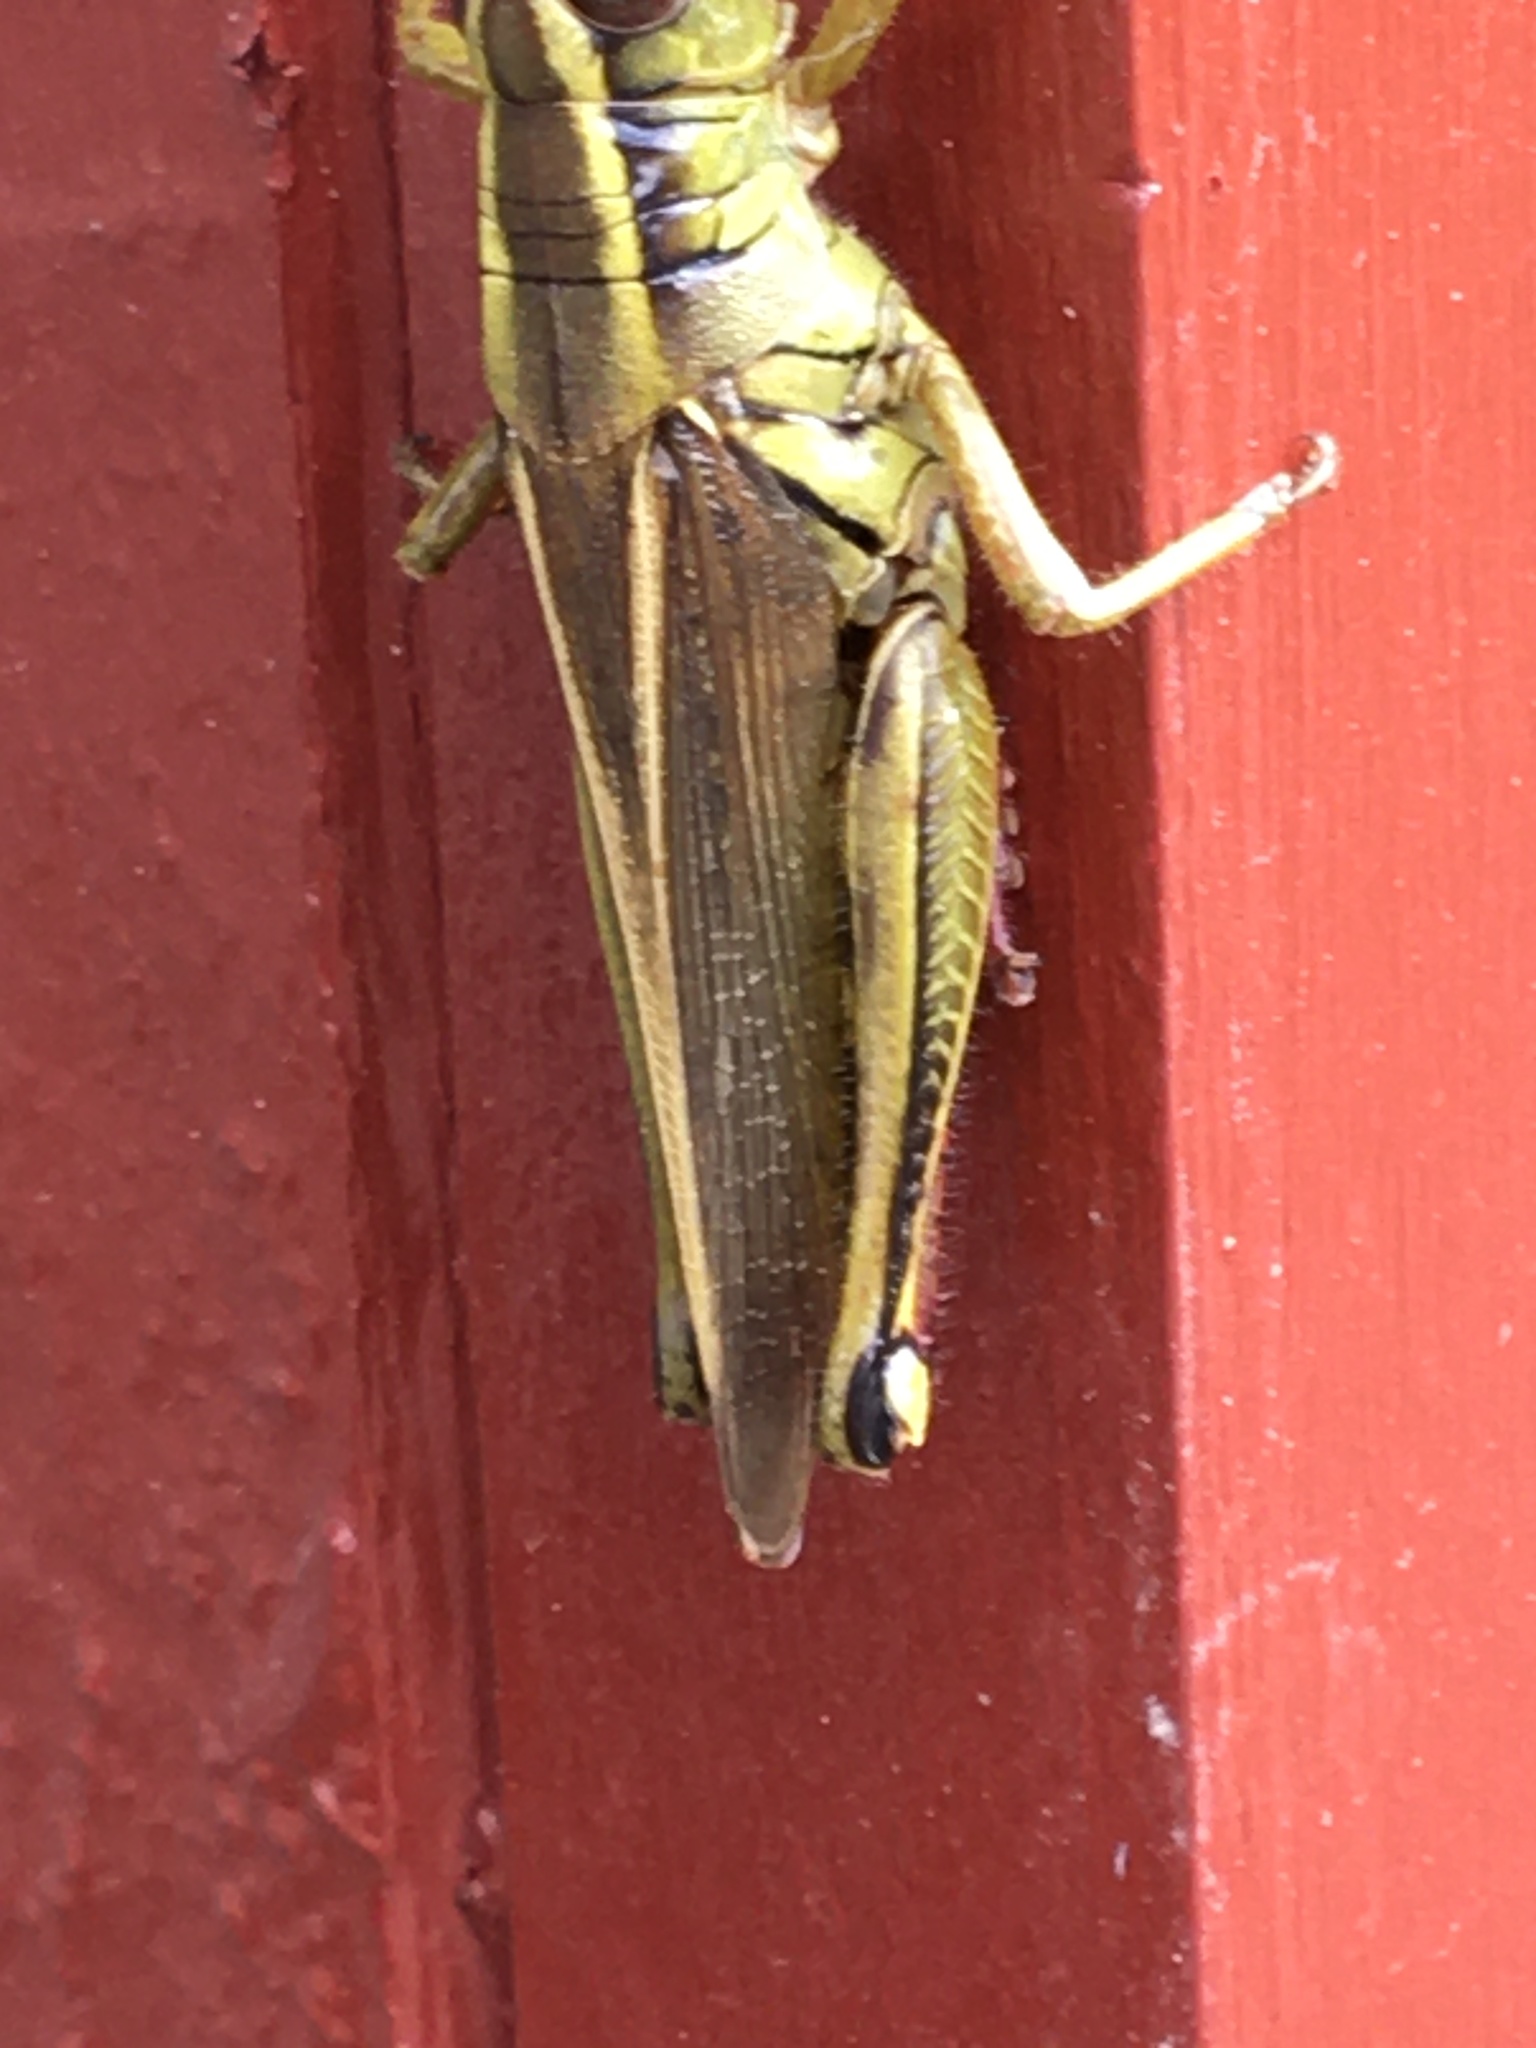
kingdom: Animalia
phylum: Arthropoda
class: Insecta
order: Orthoptera
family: Acrididae
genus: Melanoplus
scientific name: Melanoplus bivittatus
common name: Two-striped grasshopper
